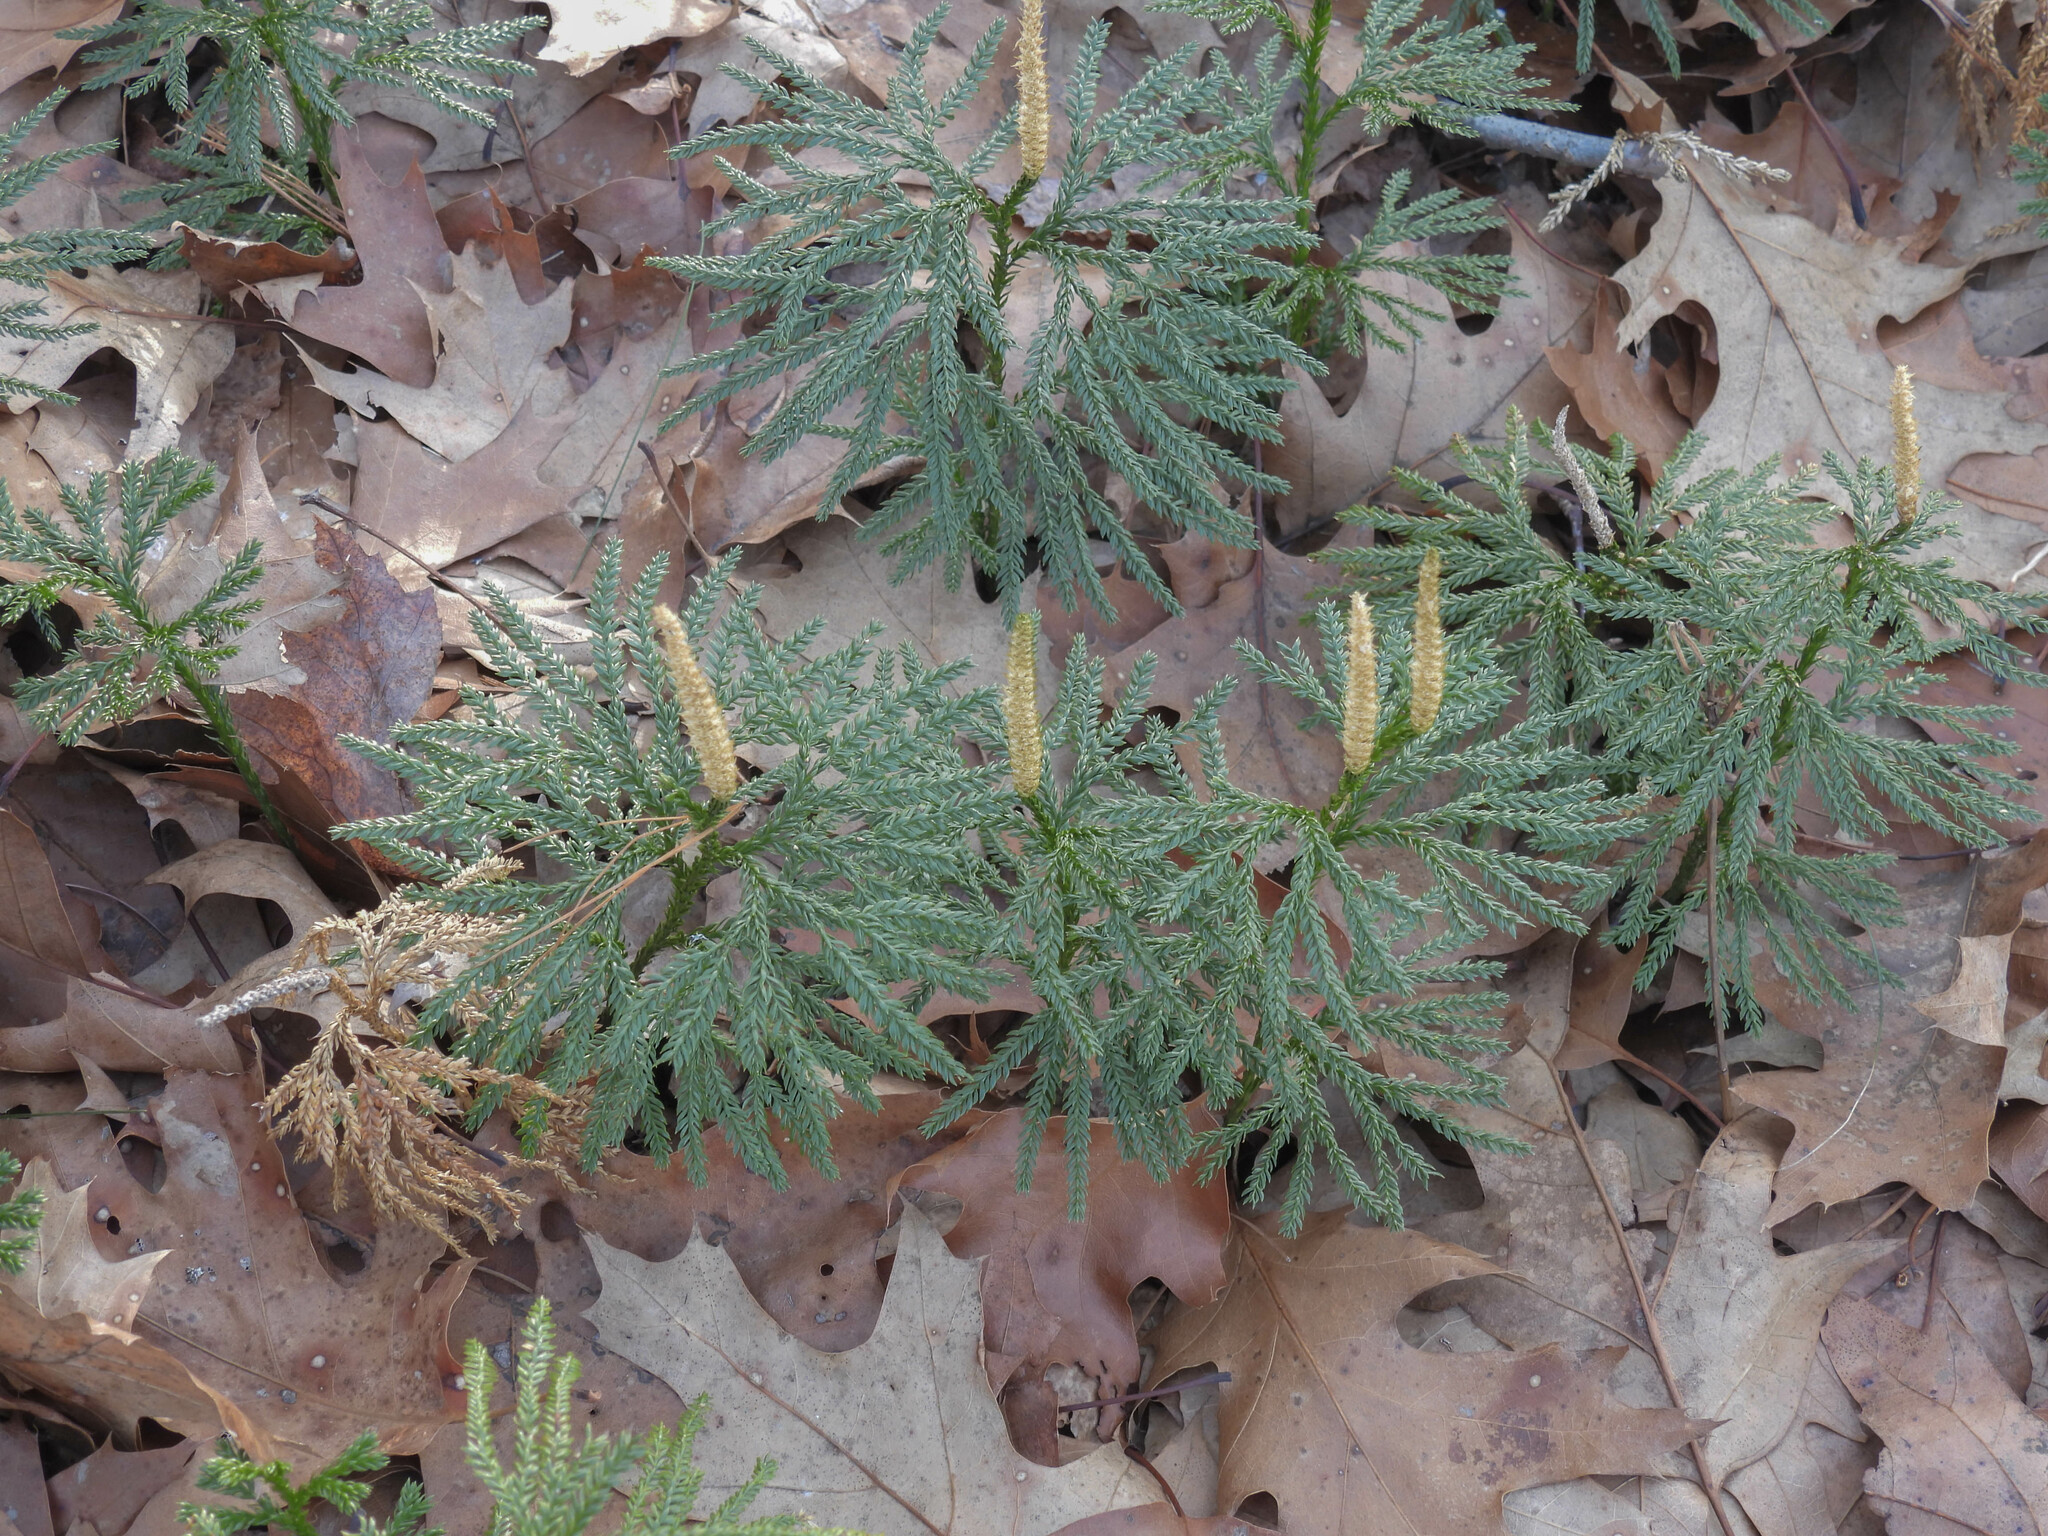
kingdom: Plantae
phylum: Tracheophyta
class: Lycopodiopsida
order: Lycopodiales
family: Lycopodiaceae
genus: Dendrolycopodium
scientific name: Dendrolycopodium obscurum
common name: Common ground-pine
